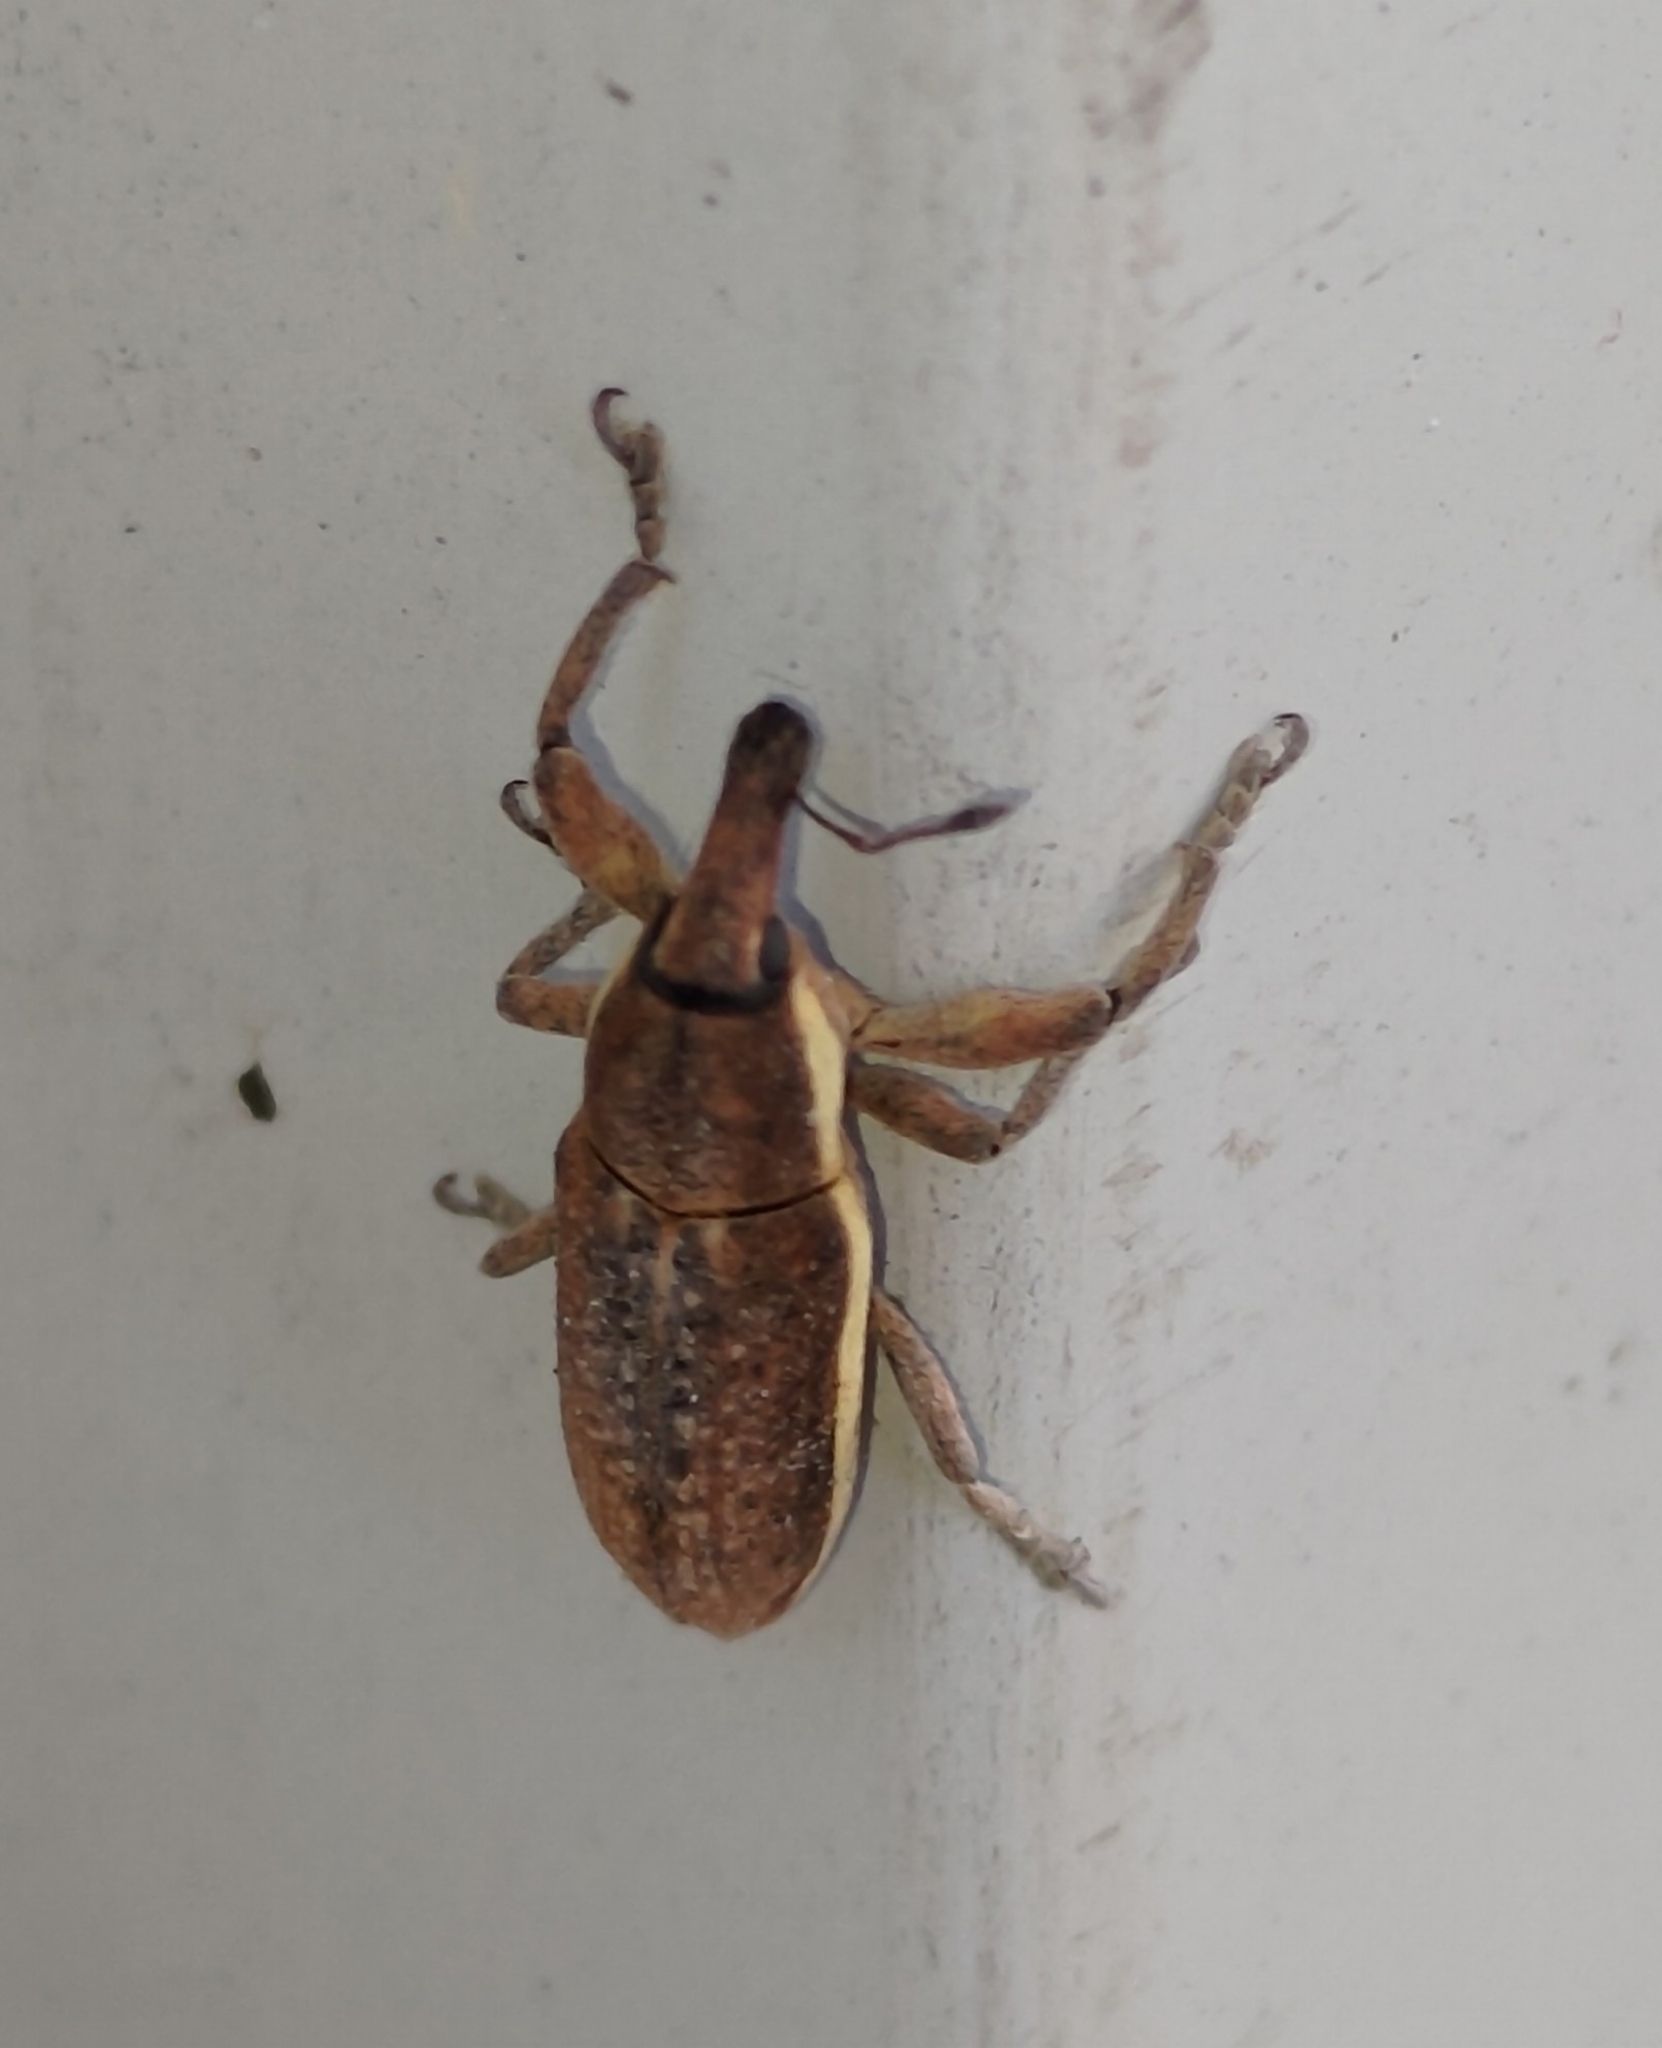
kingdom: Animalia
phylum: Arthropoda
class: Insecta
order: Coleoptera
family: Curculionidae
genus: Lixus
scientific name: Lixus ochraceus
